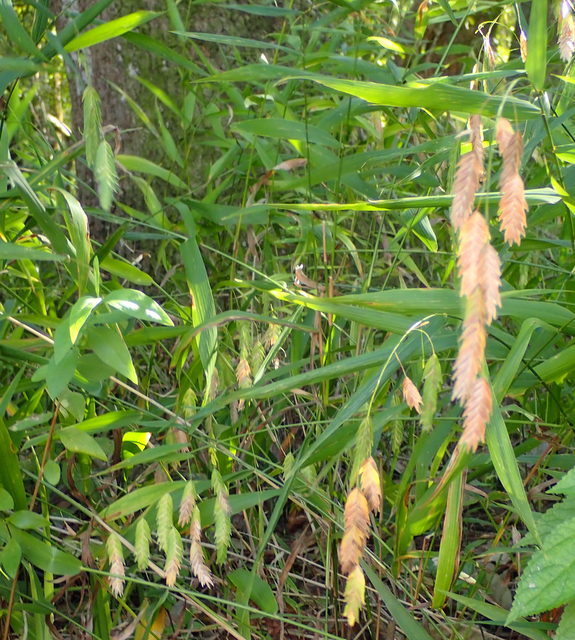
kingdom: Plantae
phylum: Tracheophyta
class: Liliopsida
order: Poales
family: Poaceae
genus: Chasmanthium
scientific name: Chasmanthium latifolium
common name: Broad-leaved chasmanthium
